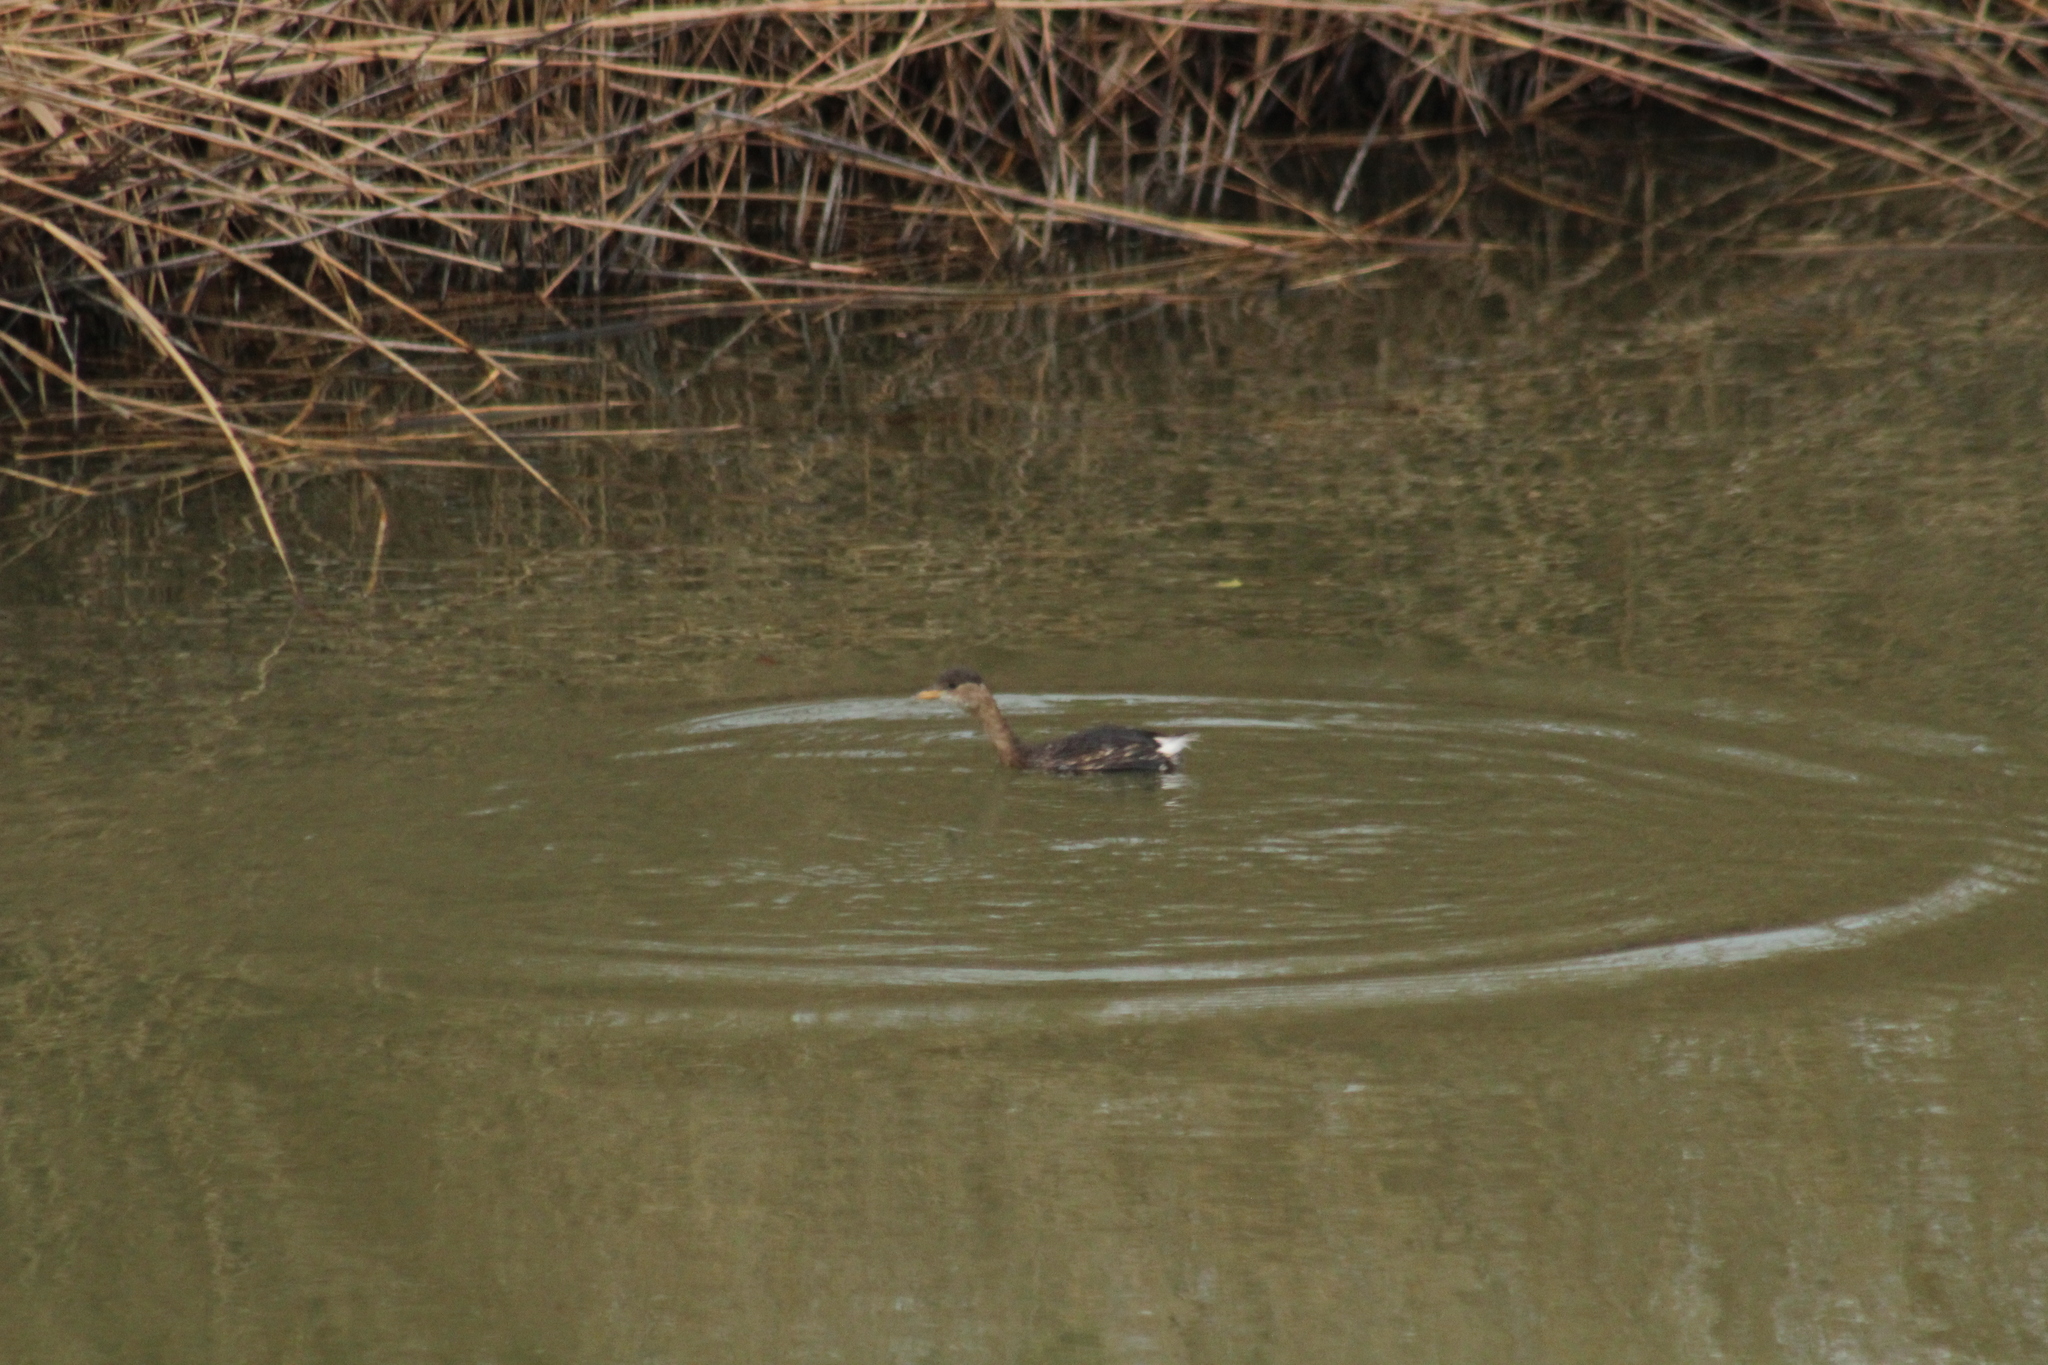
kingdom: Animalia
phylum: Chordata
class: Aves
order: Podicipediformes
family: Podicipedidae
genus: Tachybaptus
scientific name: Tachybaptus ruficollis
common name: Little grebe
